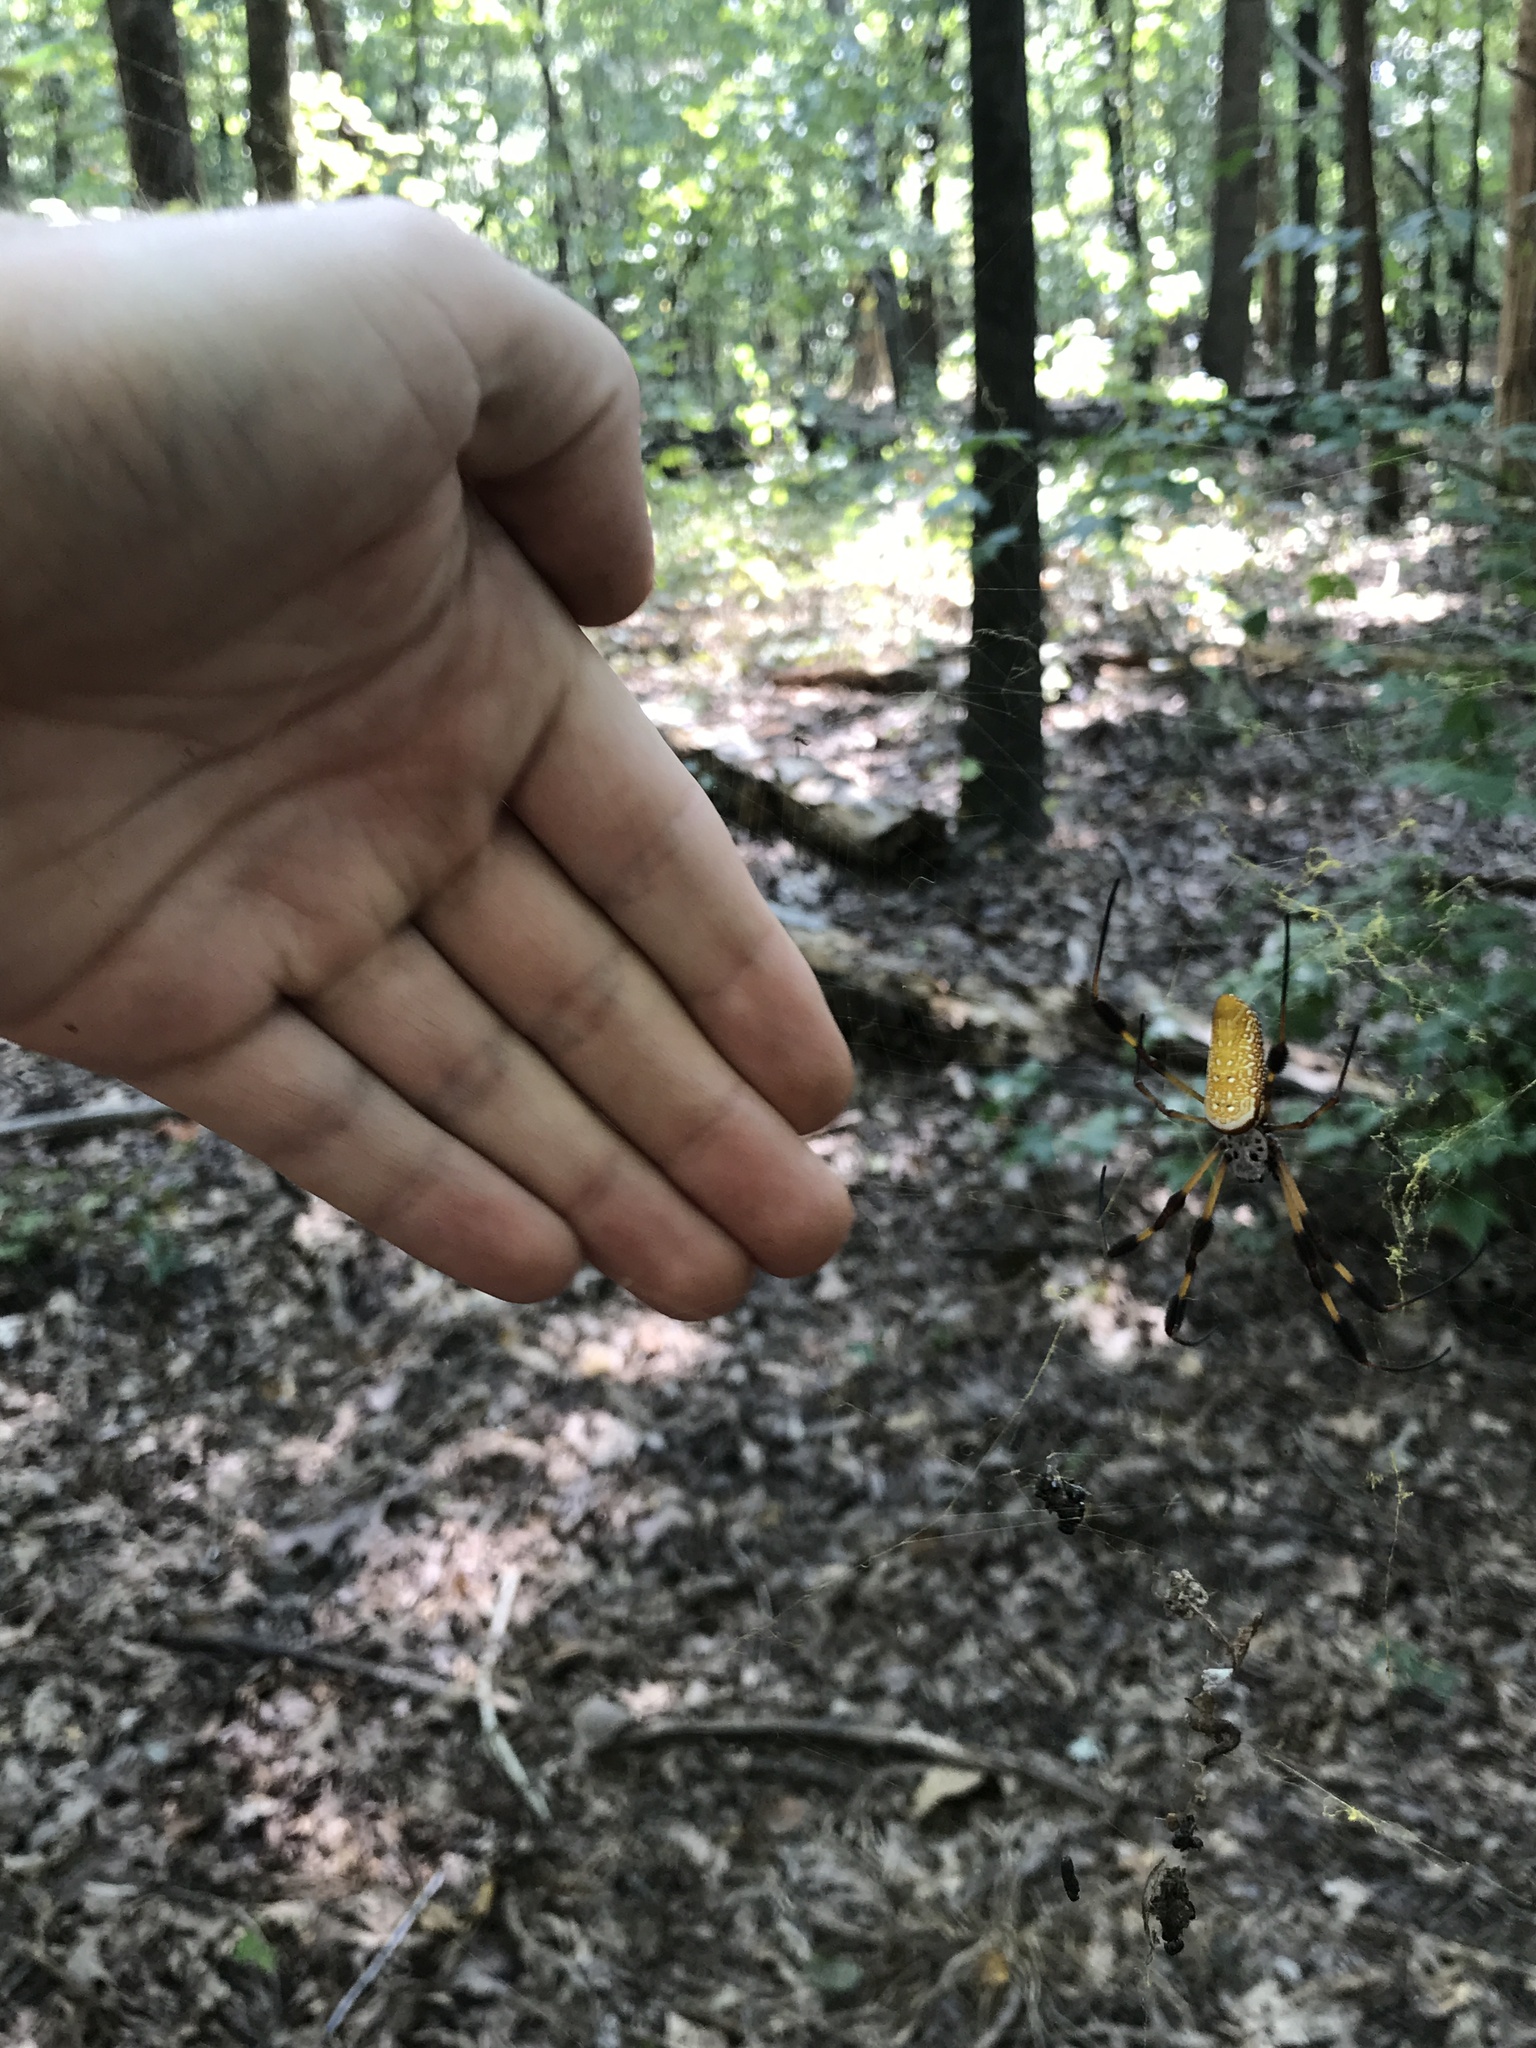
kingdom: Animalia
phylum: Arthropoda
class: Arachnida
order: Araneae
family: Araneidae
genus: Trichonephila
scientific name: Trichonephila clavipes
